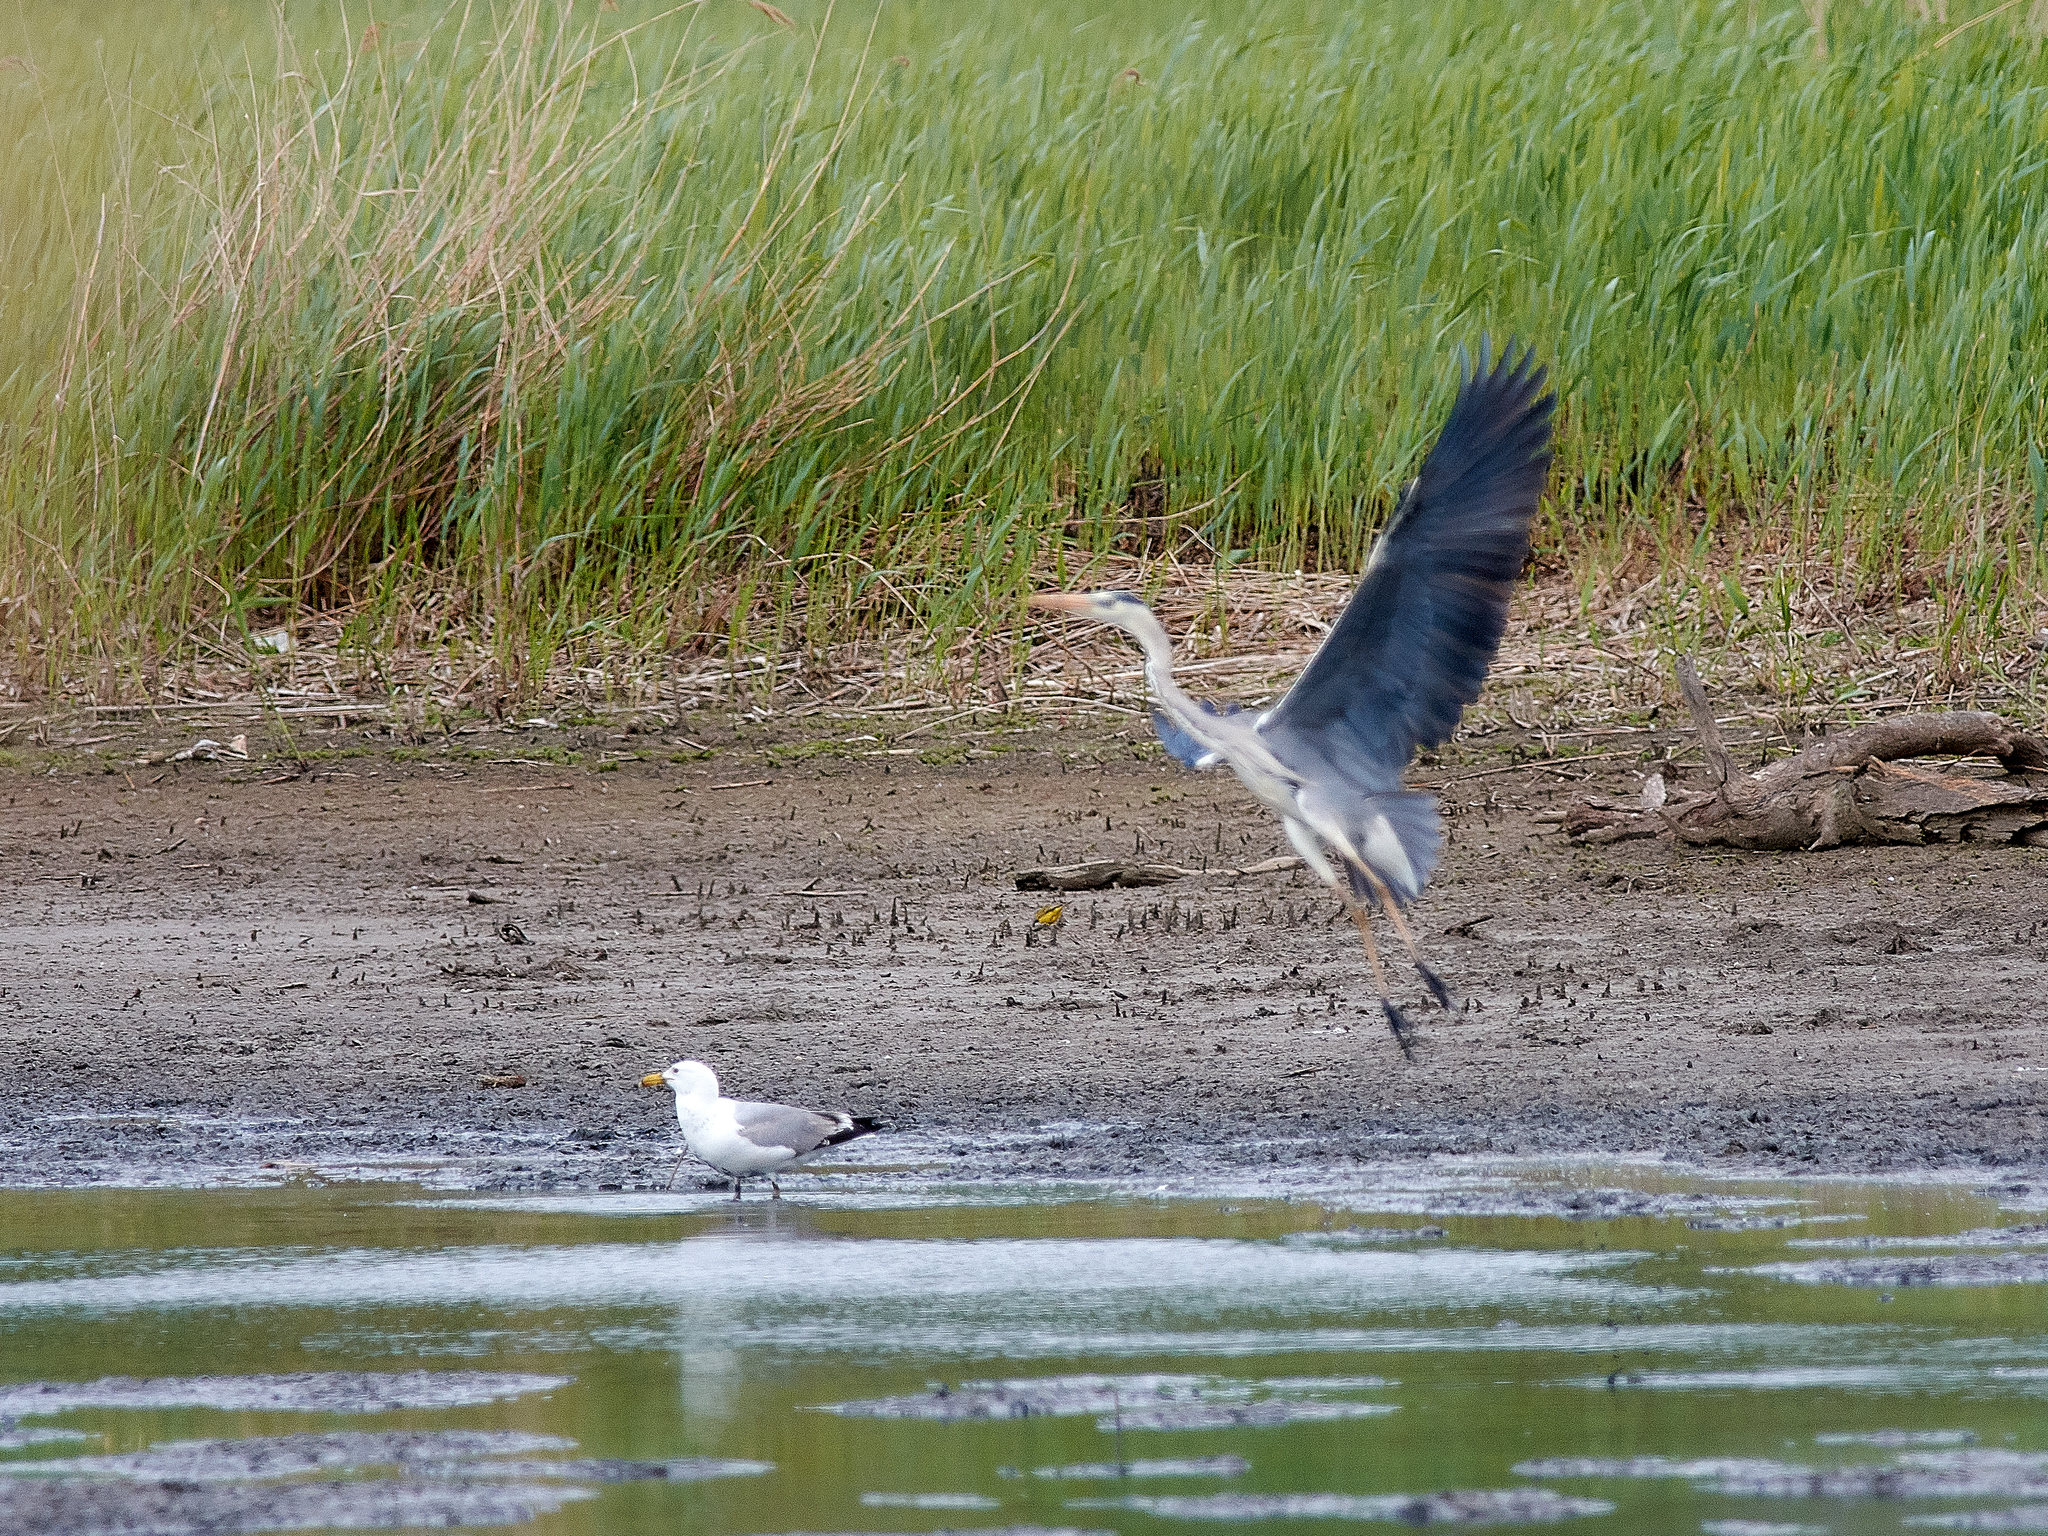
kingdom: Animalia
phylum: Chordata
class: Aves
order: Pelecaniformes
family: Ardeidae
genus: Ardea
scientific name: Ardea cinerea
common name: Grey heron
